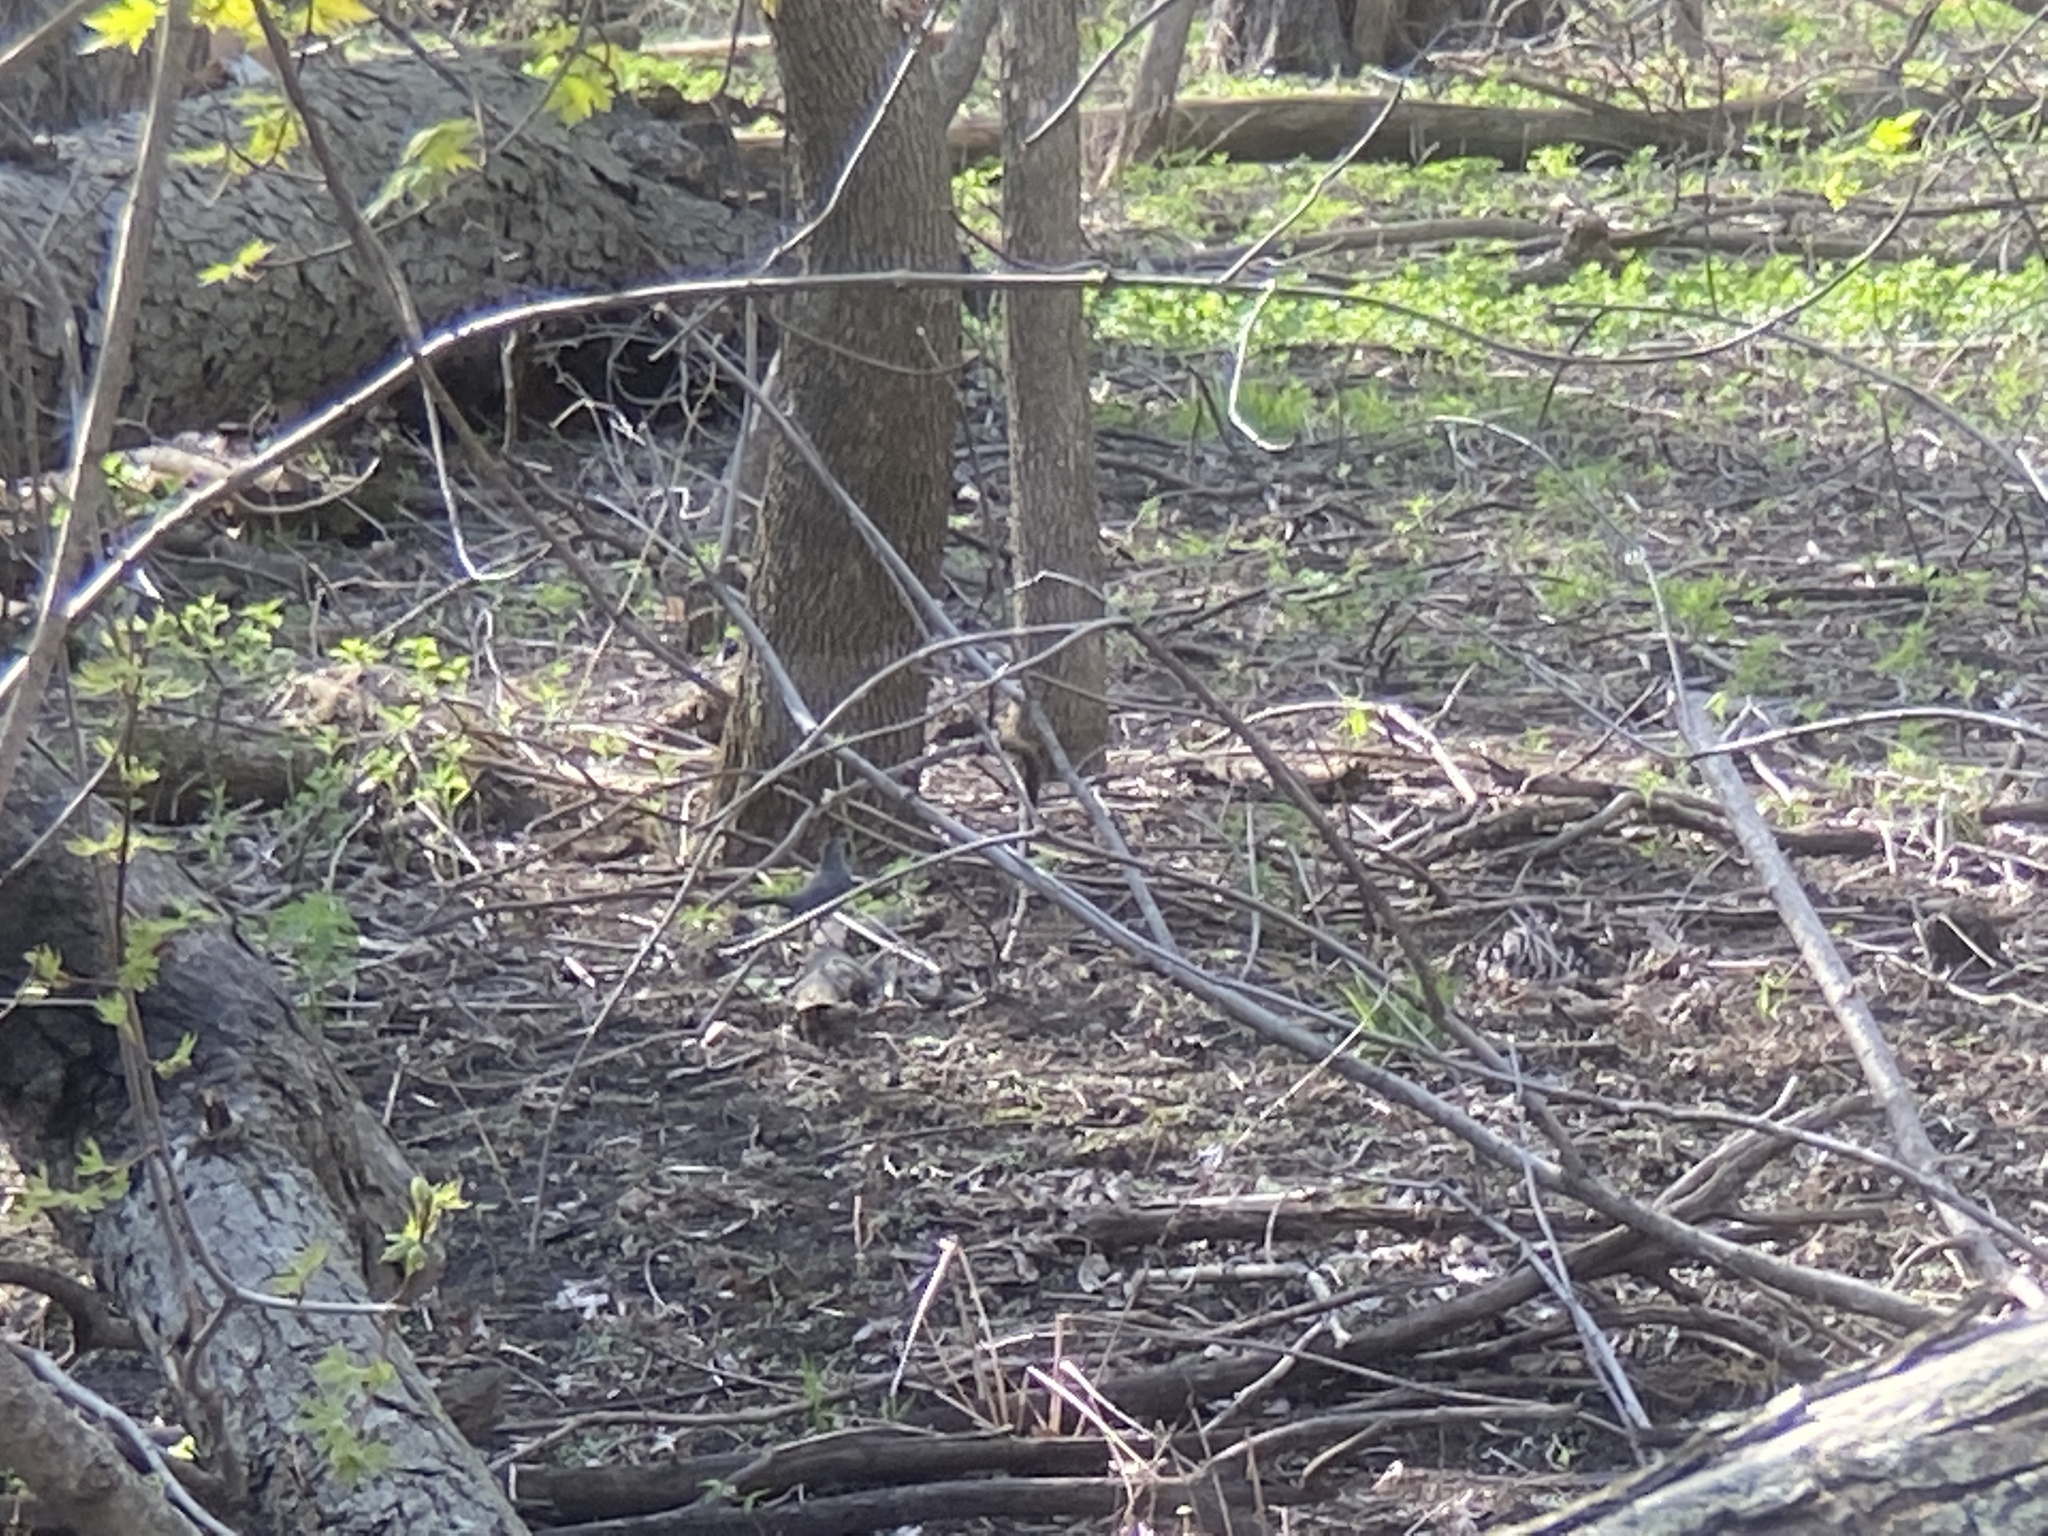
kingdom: Animalia
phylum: Chordata
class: Aves
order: Passeriformes
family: Mimidae
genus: Dumetella
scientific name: Dumetella carolinensis
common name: Gray catbird
